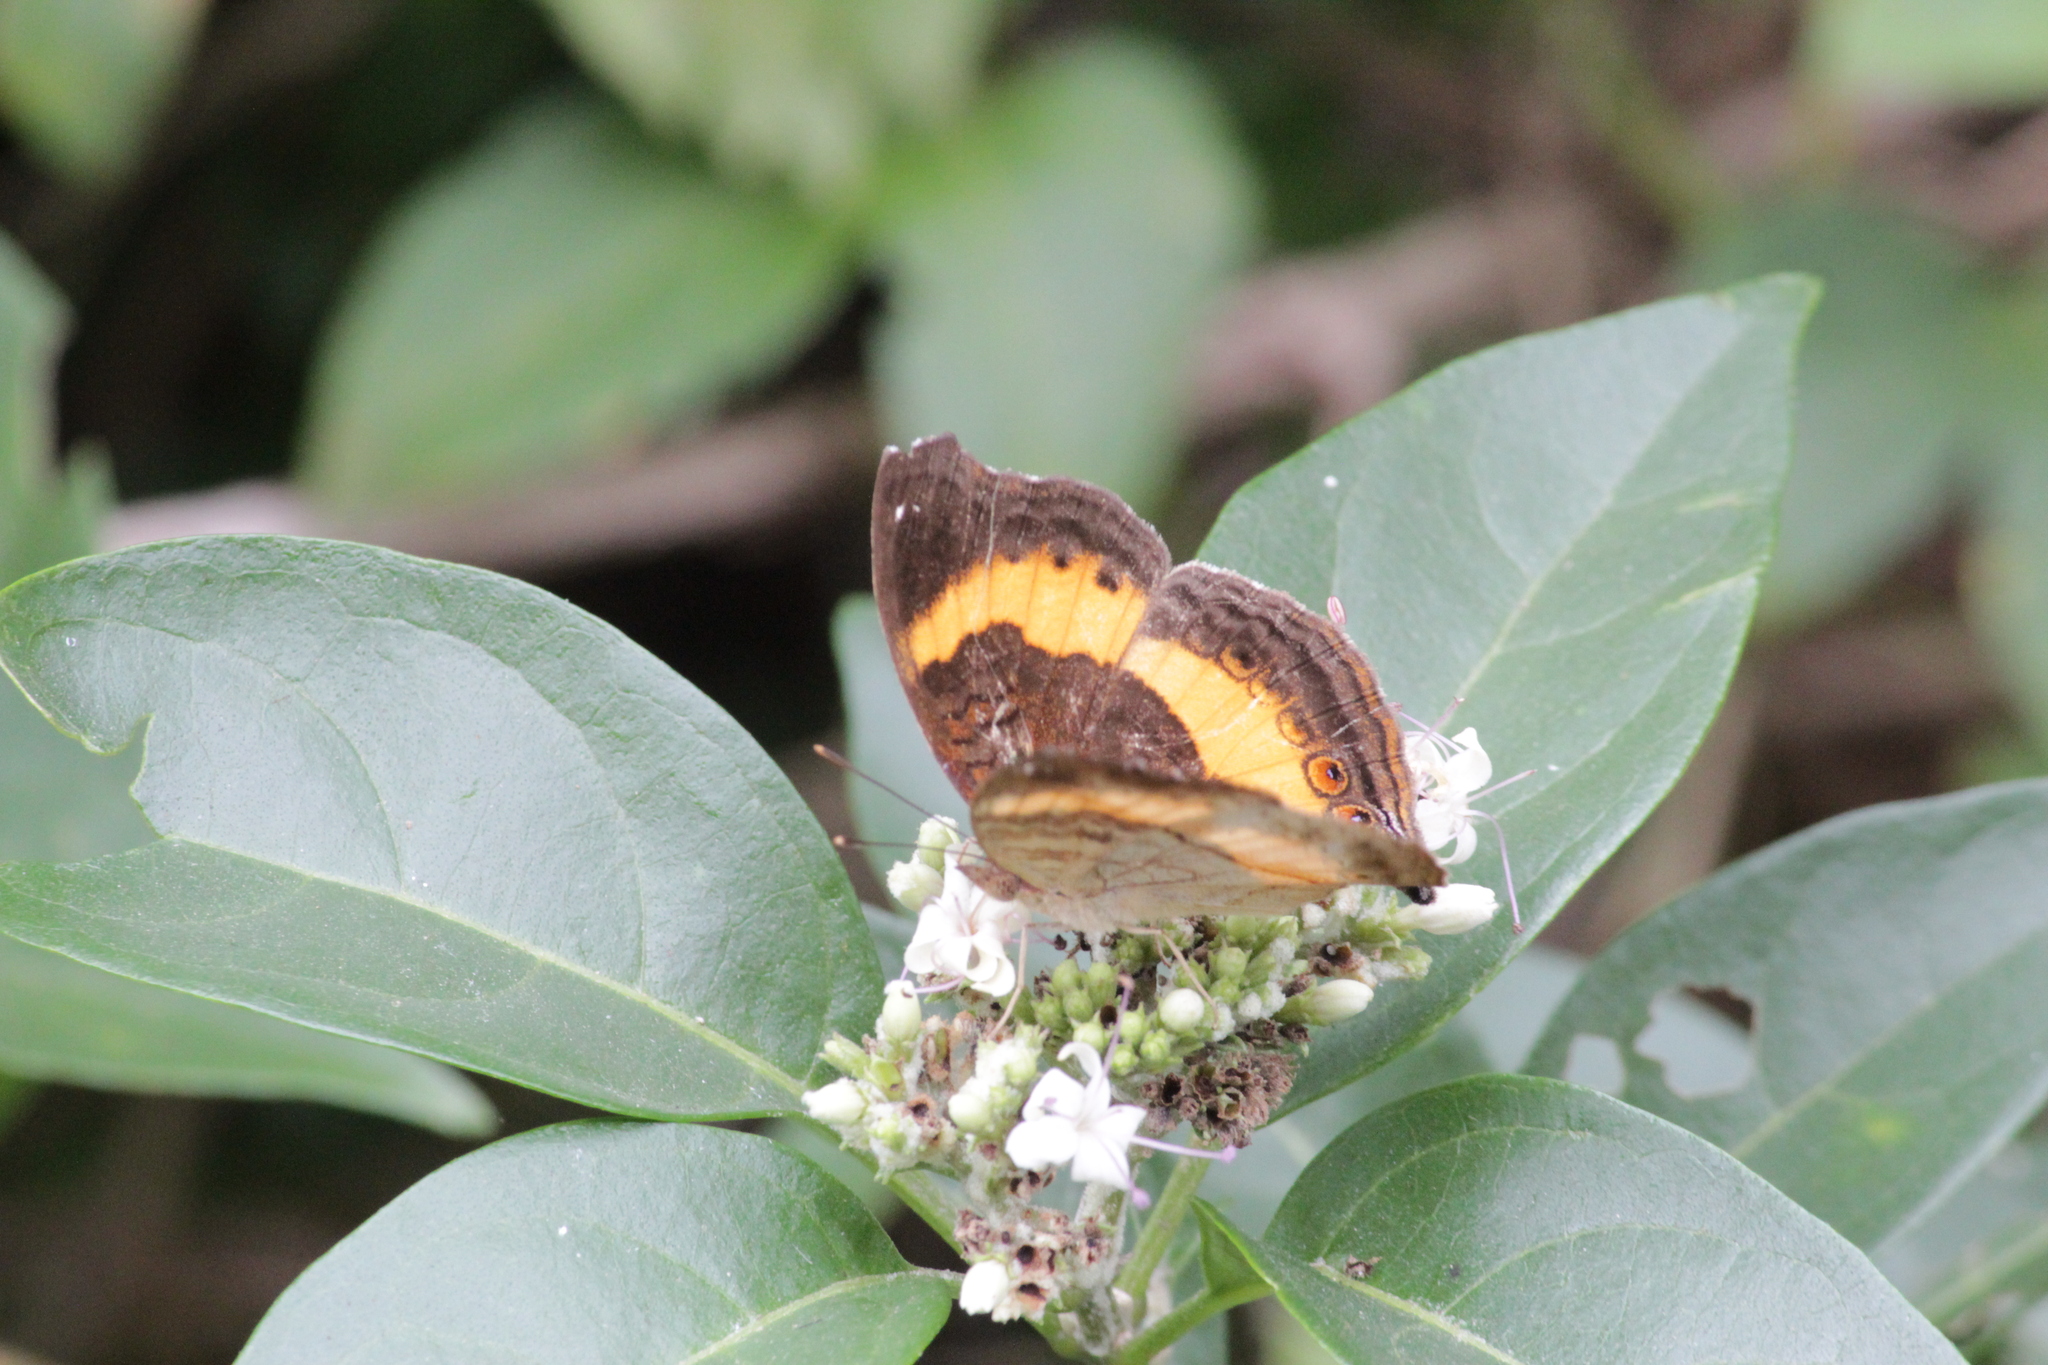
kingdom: Animalia
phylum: Arthropoda
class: Insecta
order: Lepidoptera
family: Nymphalidae
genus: Junonia
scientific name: Junonia terea
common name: Soldier pansy
